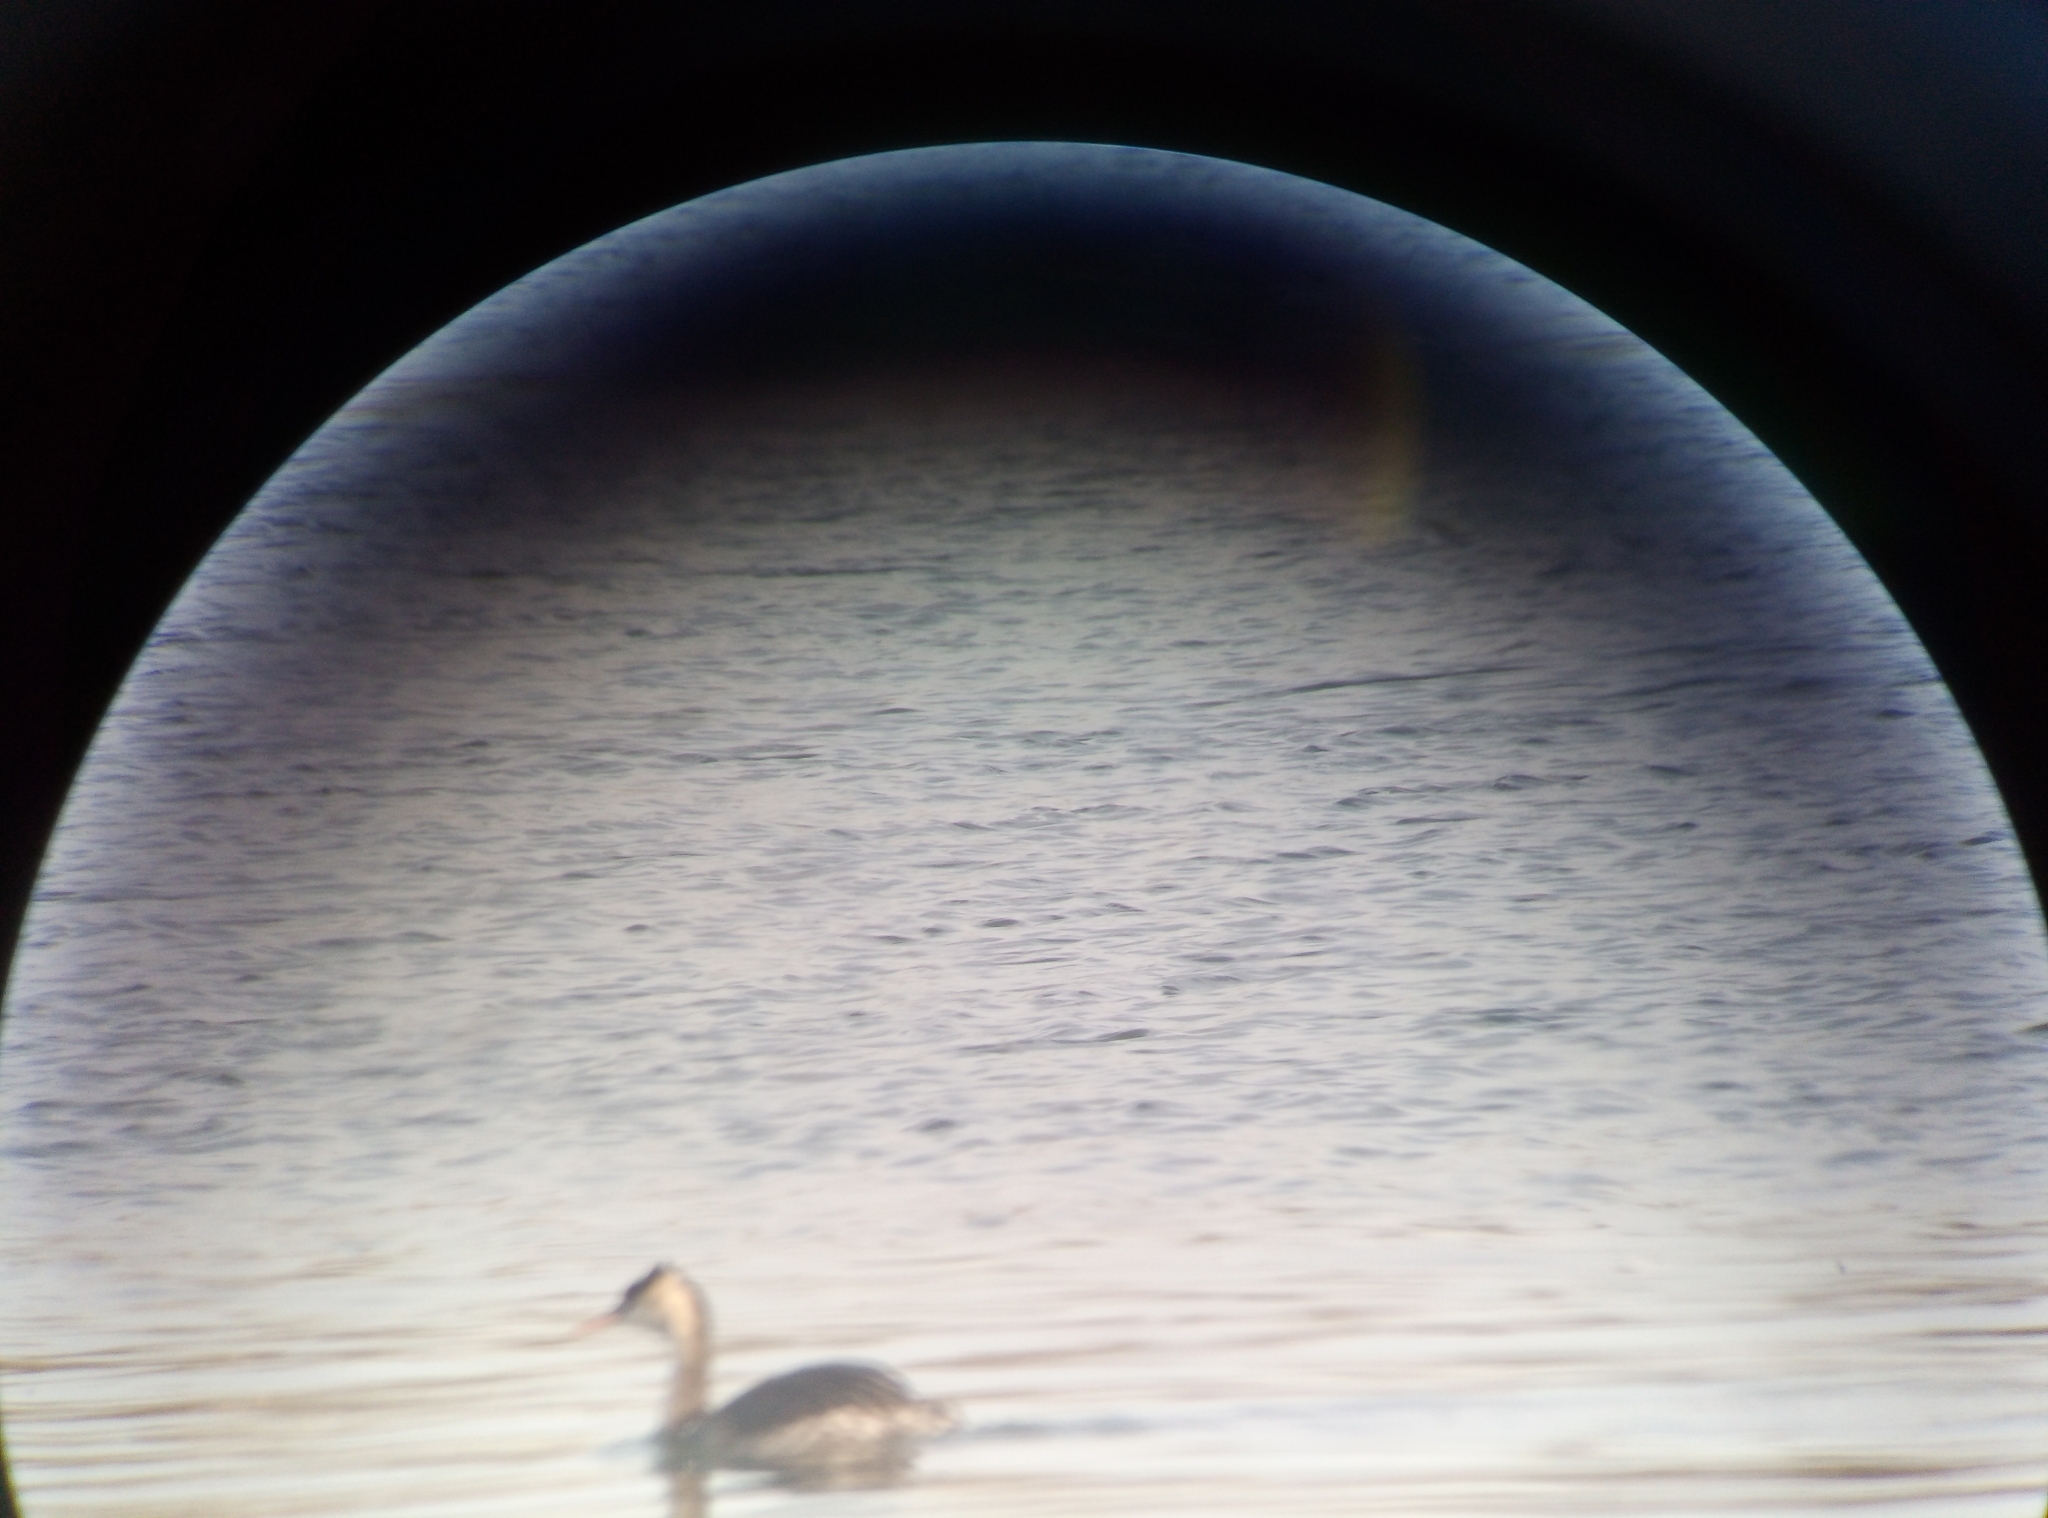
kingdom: Animalia
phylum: Chordata
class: Aves
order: Podicipediformes
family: Podicipedidae
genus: Podiceps
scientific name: Podiceps cristatus
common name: Great crested grebe
